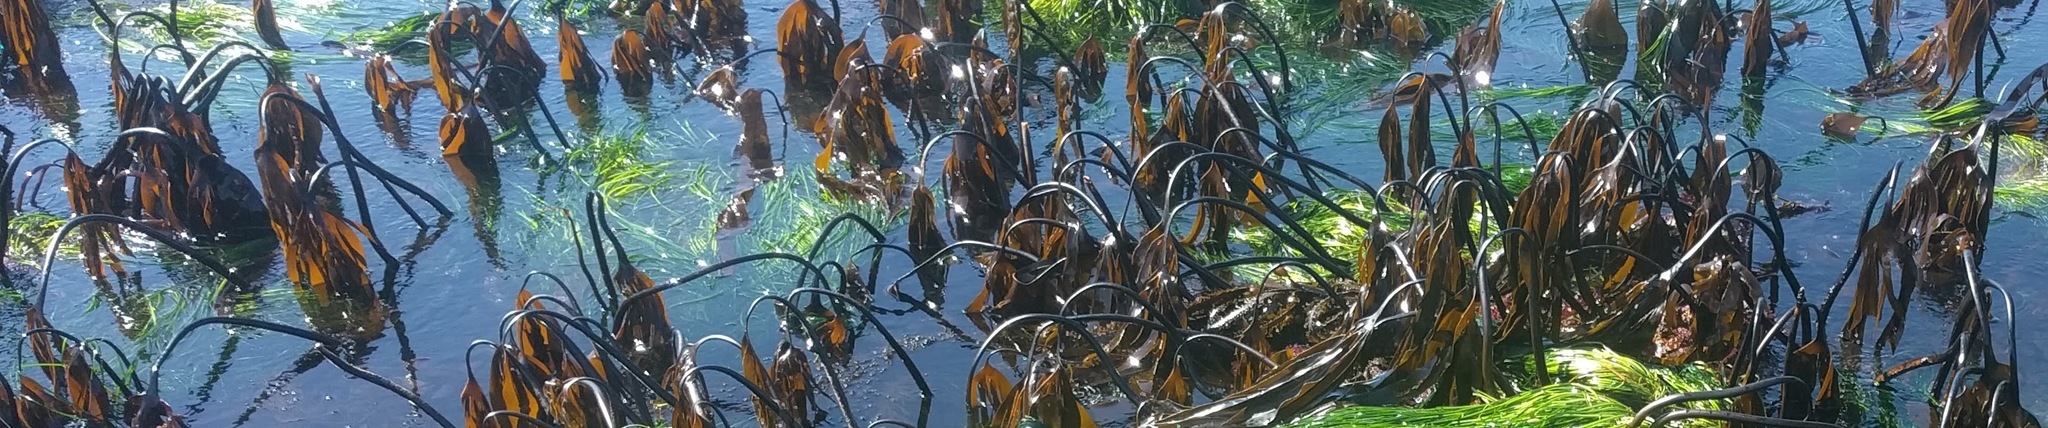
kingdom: Chromista
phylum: Ochrophyta
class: Phaeophyceae
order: Laminariales
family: Laminariaceae
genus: Laminaria
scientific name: Laminaria setchellii
